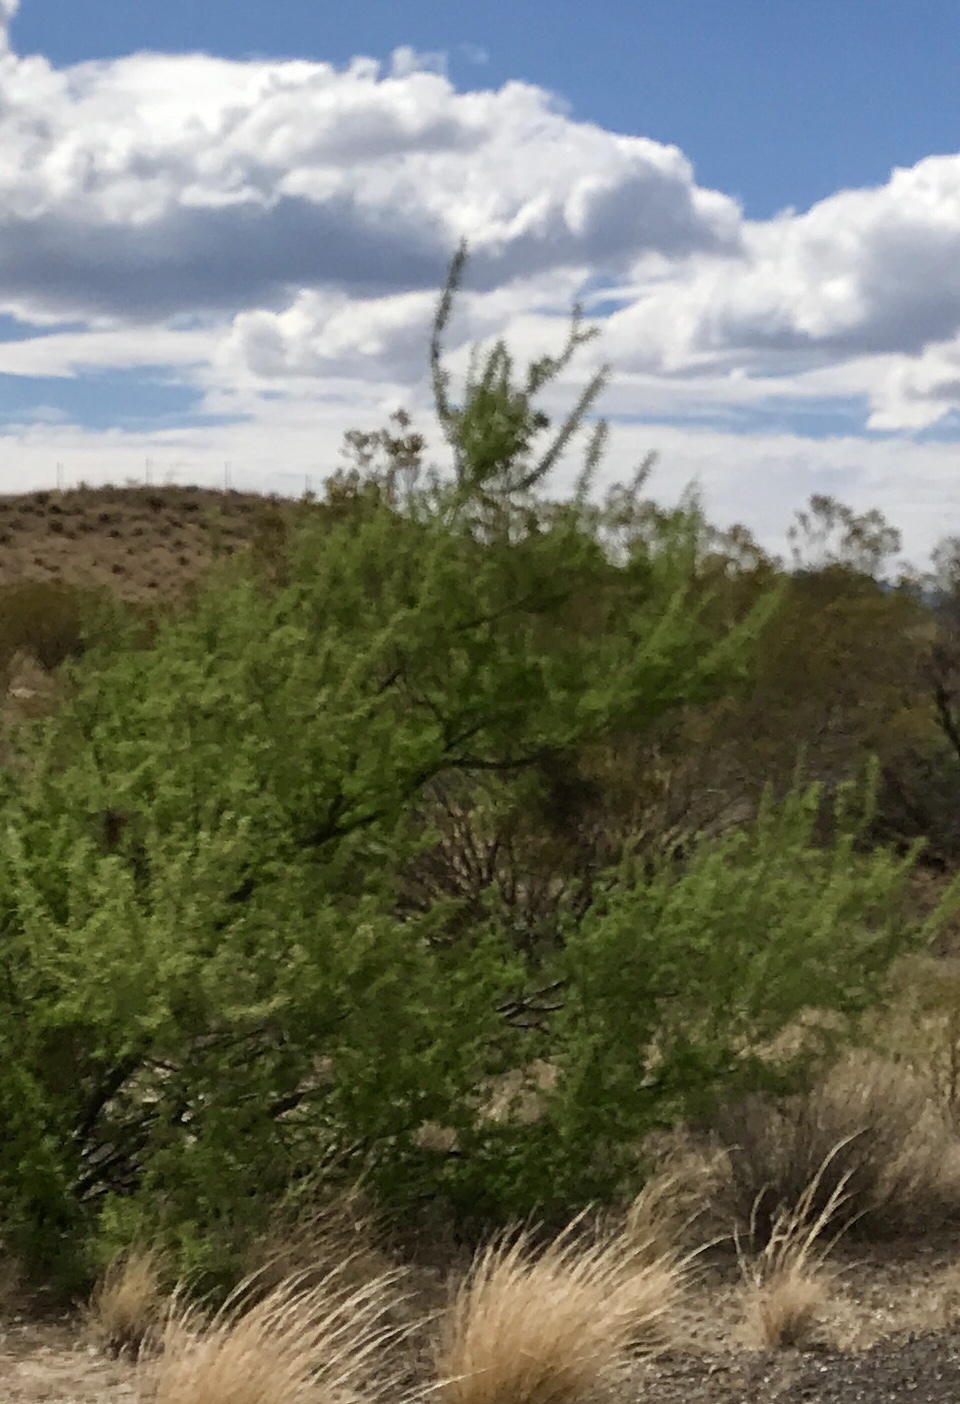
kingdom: Plantae
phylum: Tracheophyta
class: Magnoliopsida
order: Fabales
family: Fabaceae
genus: Senegalia
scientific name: Senegalia greggii
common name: Texas-mimosa
